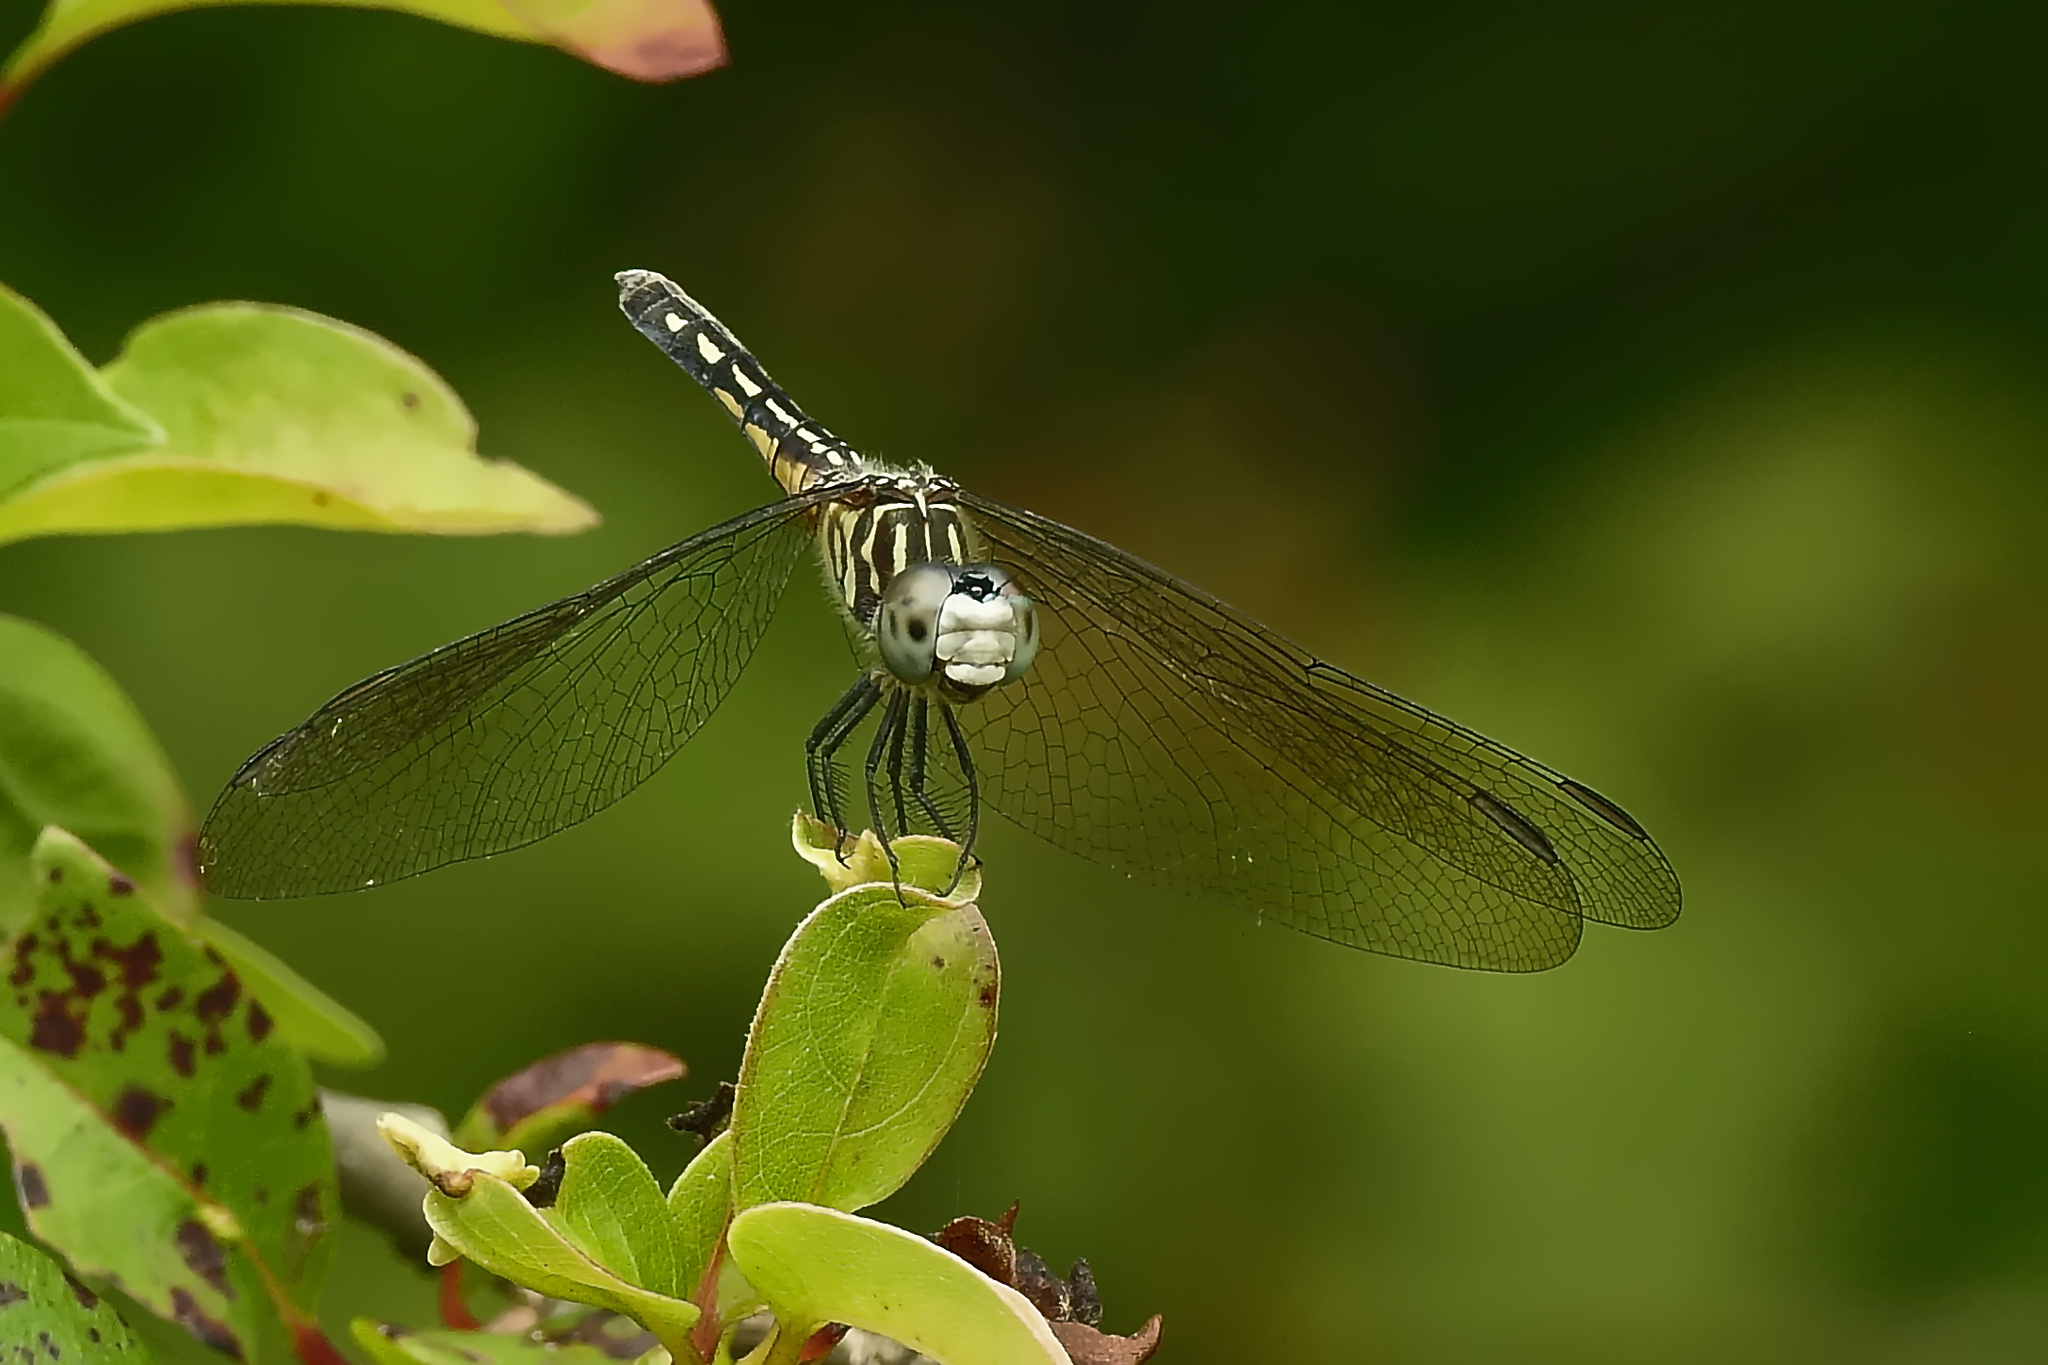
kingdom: Animalia
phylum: Arthropoda
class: Insecta
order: Odonata
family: Libellulidae
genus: Pachydiplax
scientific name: Pachydiplax longipennis
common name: Blue dasher
